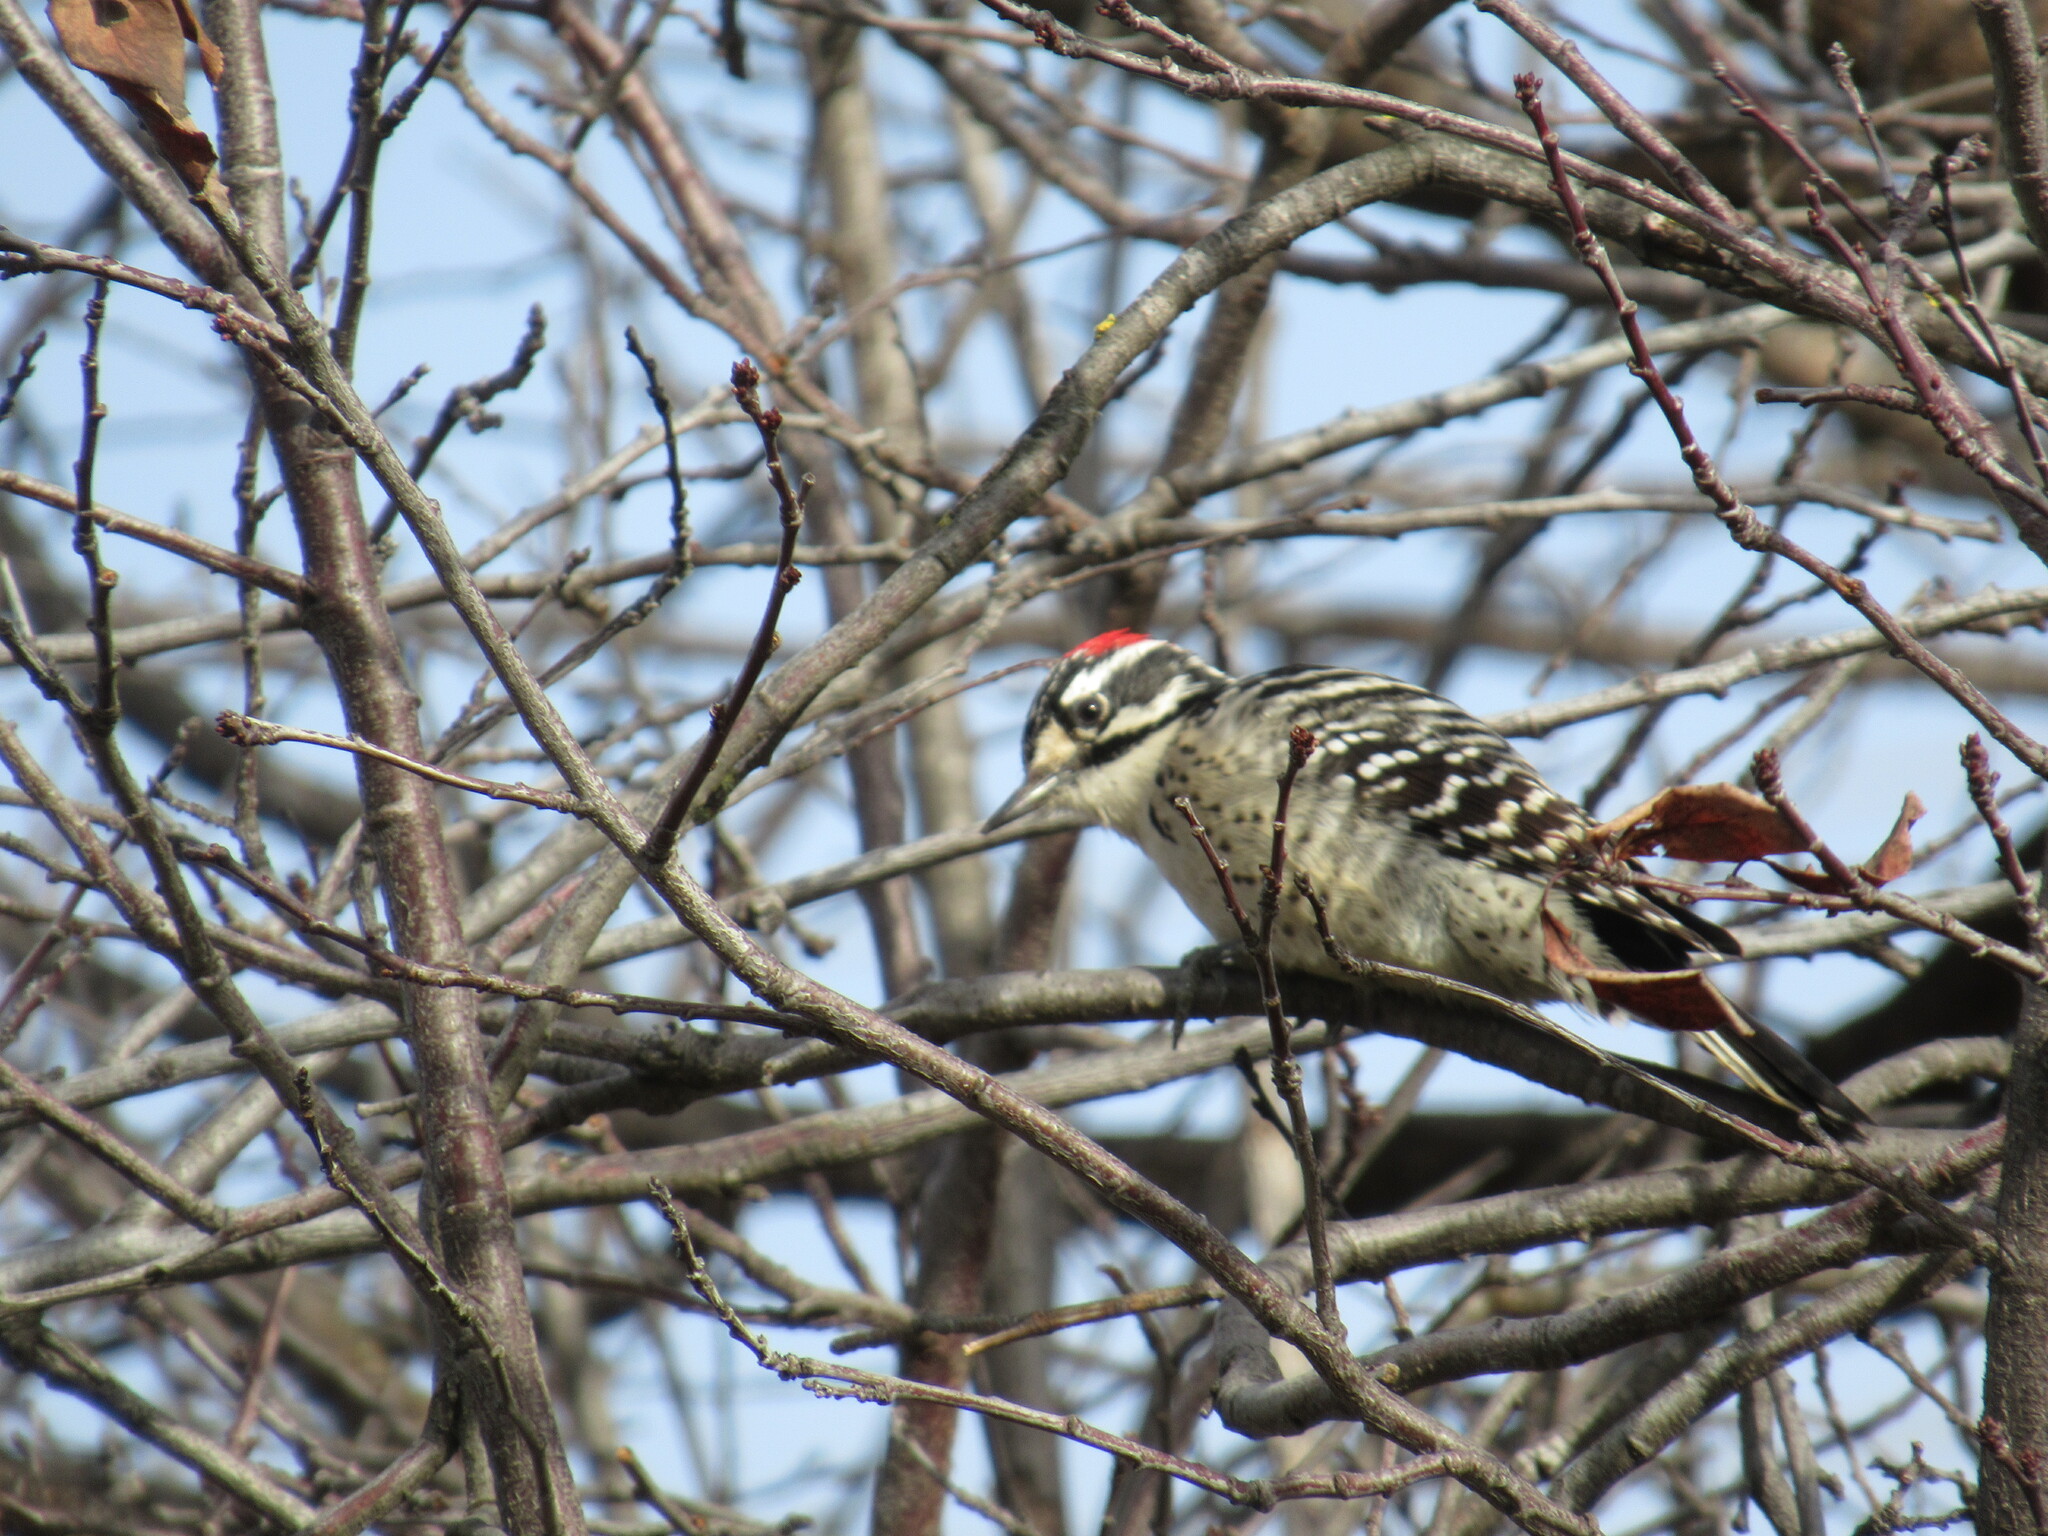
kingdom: Animalia
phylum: Chordata
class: Aves
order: Piciformes
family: Picidae
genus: Dryobates
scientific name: Dryobates nuttallii
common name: Nuttall's woodpecker
